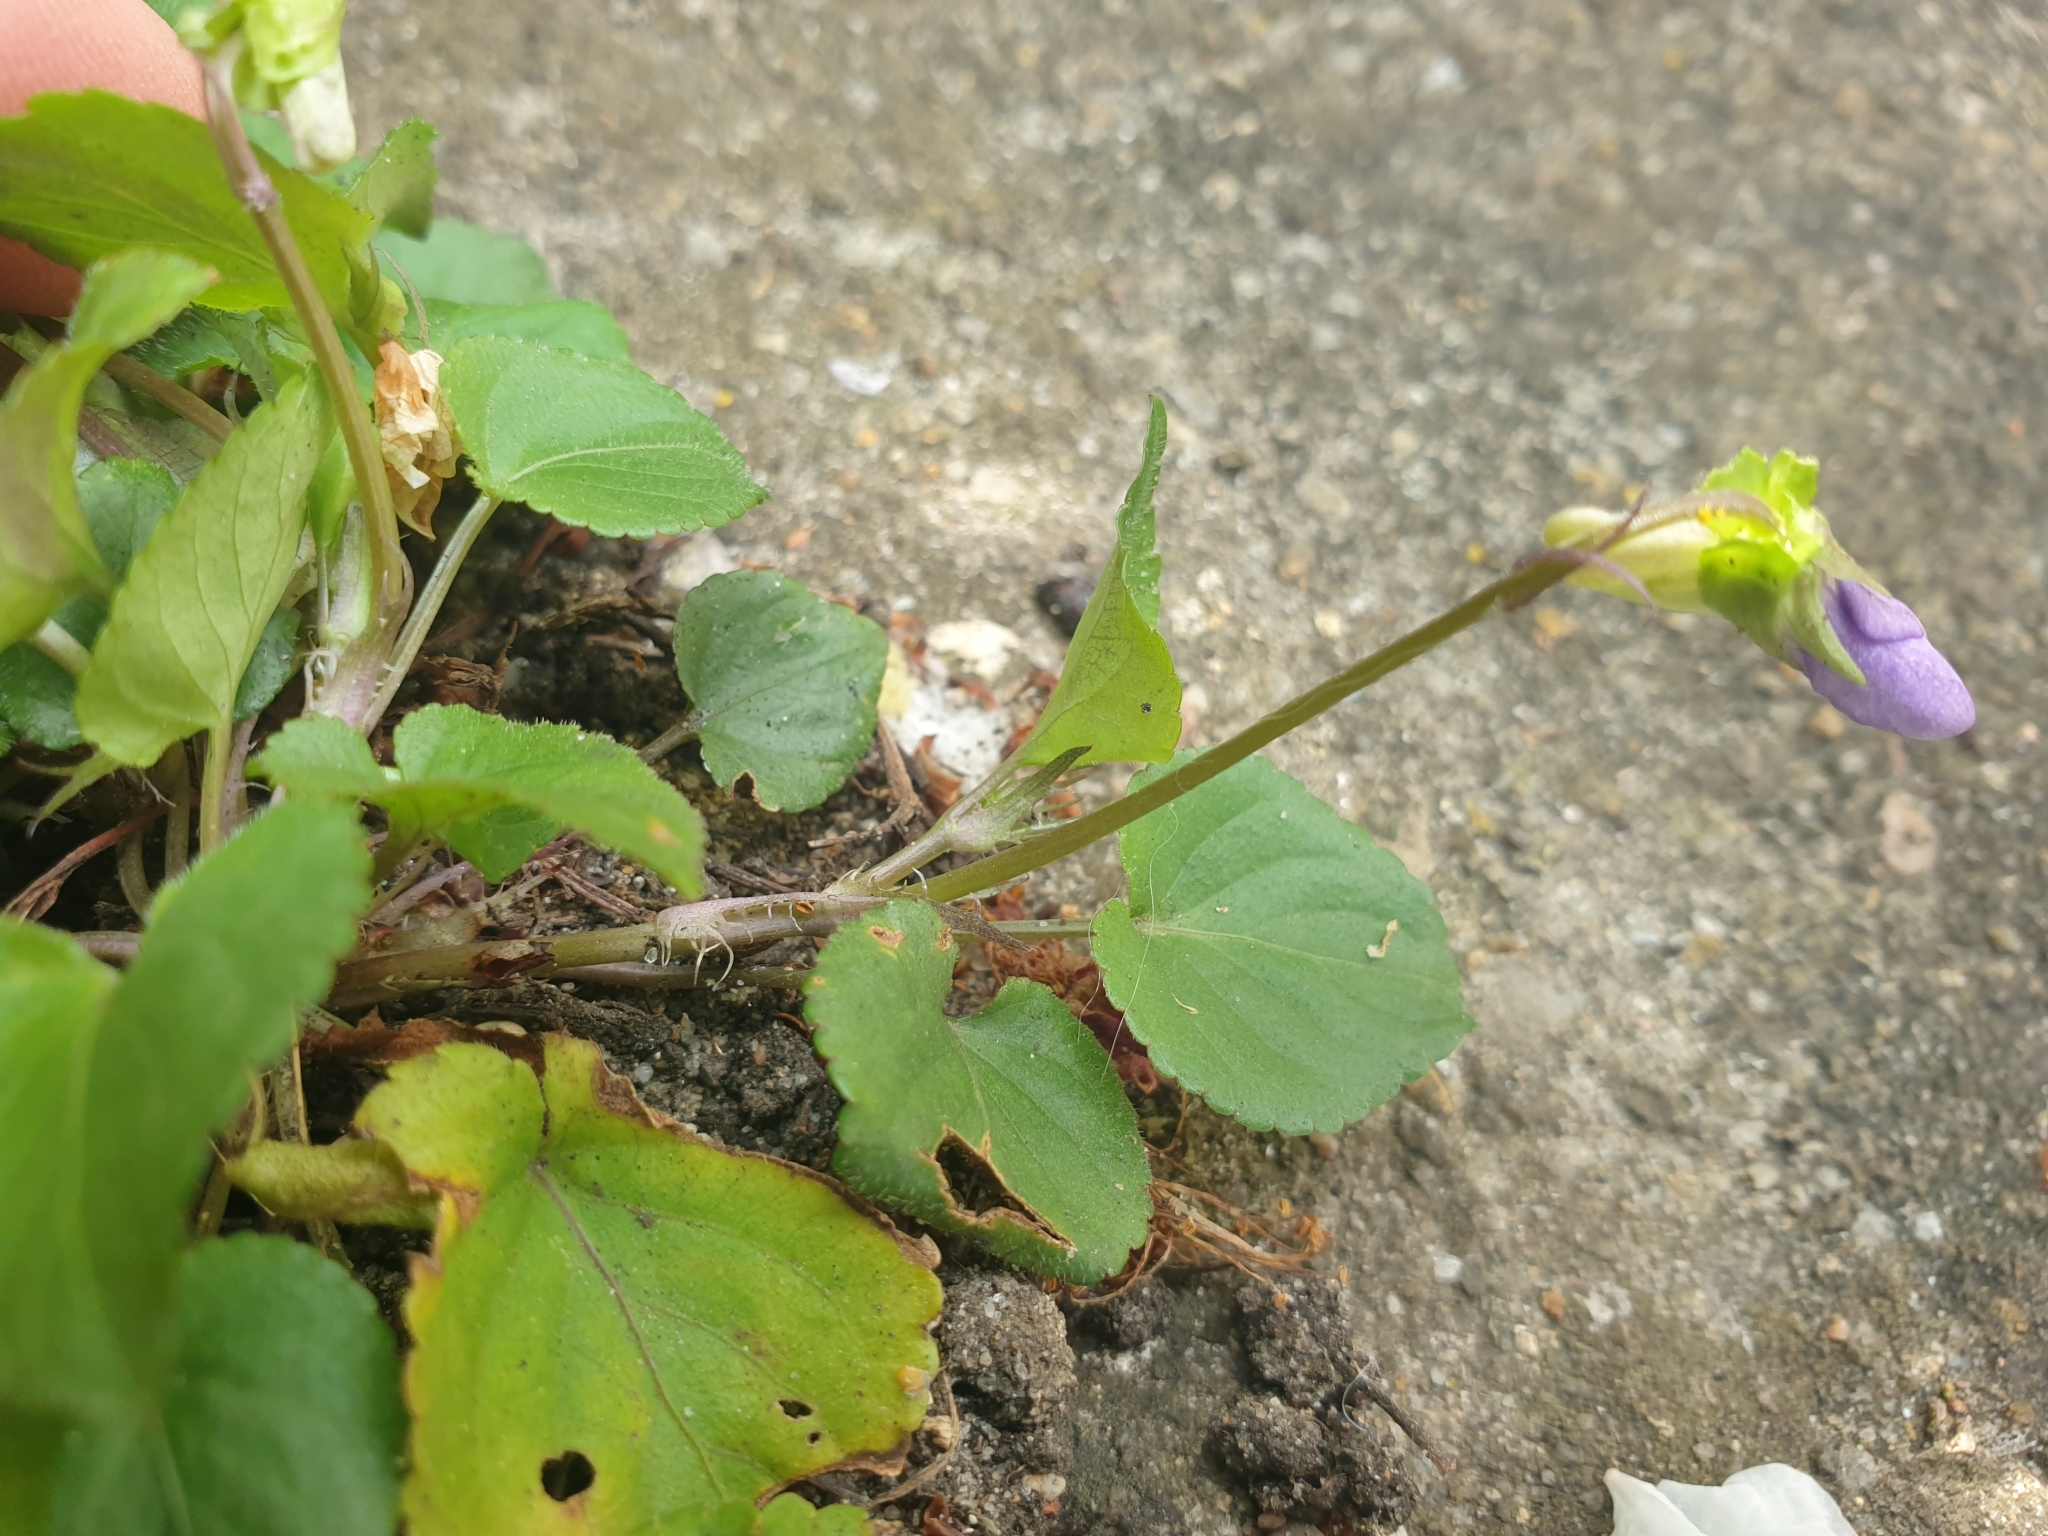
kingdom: Plantae
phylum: Tracheophyta
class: Magnoliopsida
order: Malpighiales
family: Violaceae
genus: Viola
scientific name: Viola riviniana
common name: Common dog-violet
